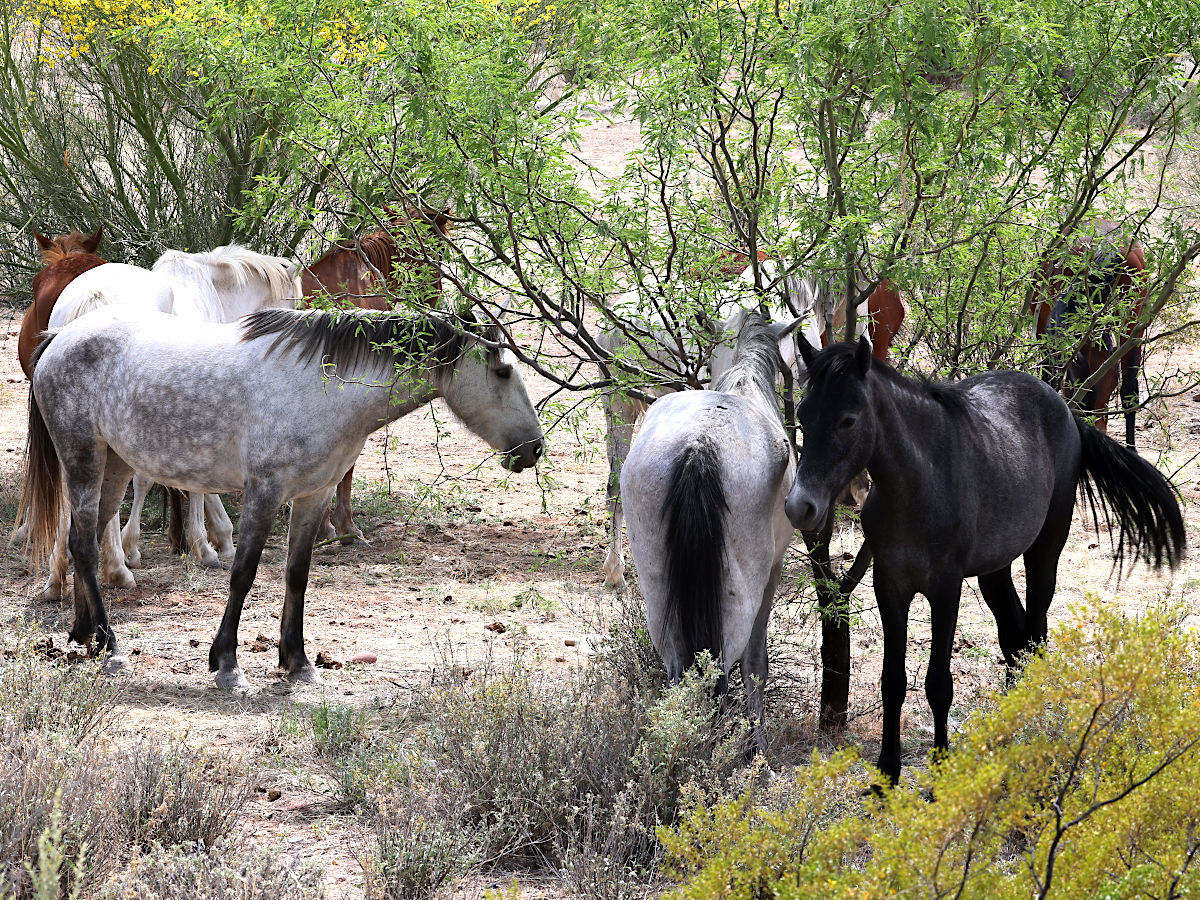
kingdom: Animalia
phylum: Chordata
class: Mammalia
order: Perissodactyla
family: Equidae
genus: Equus
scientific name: Equus caballus
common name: Horse
